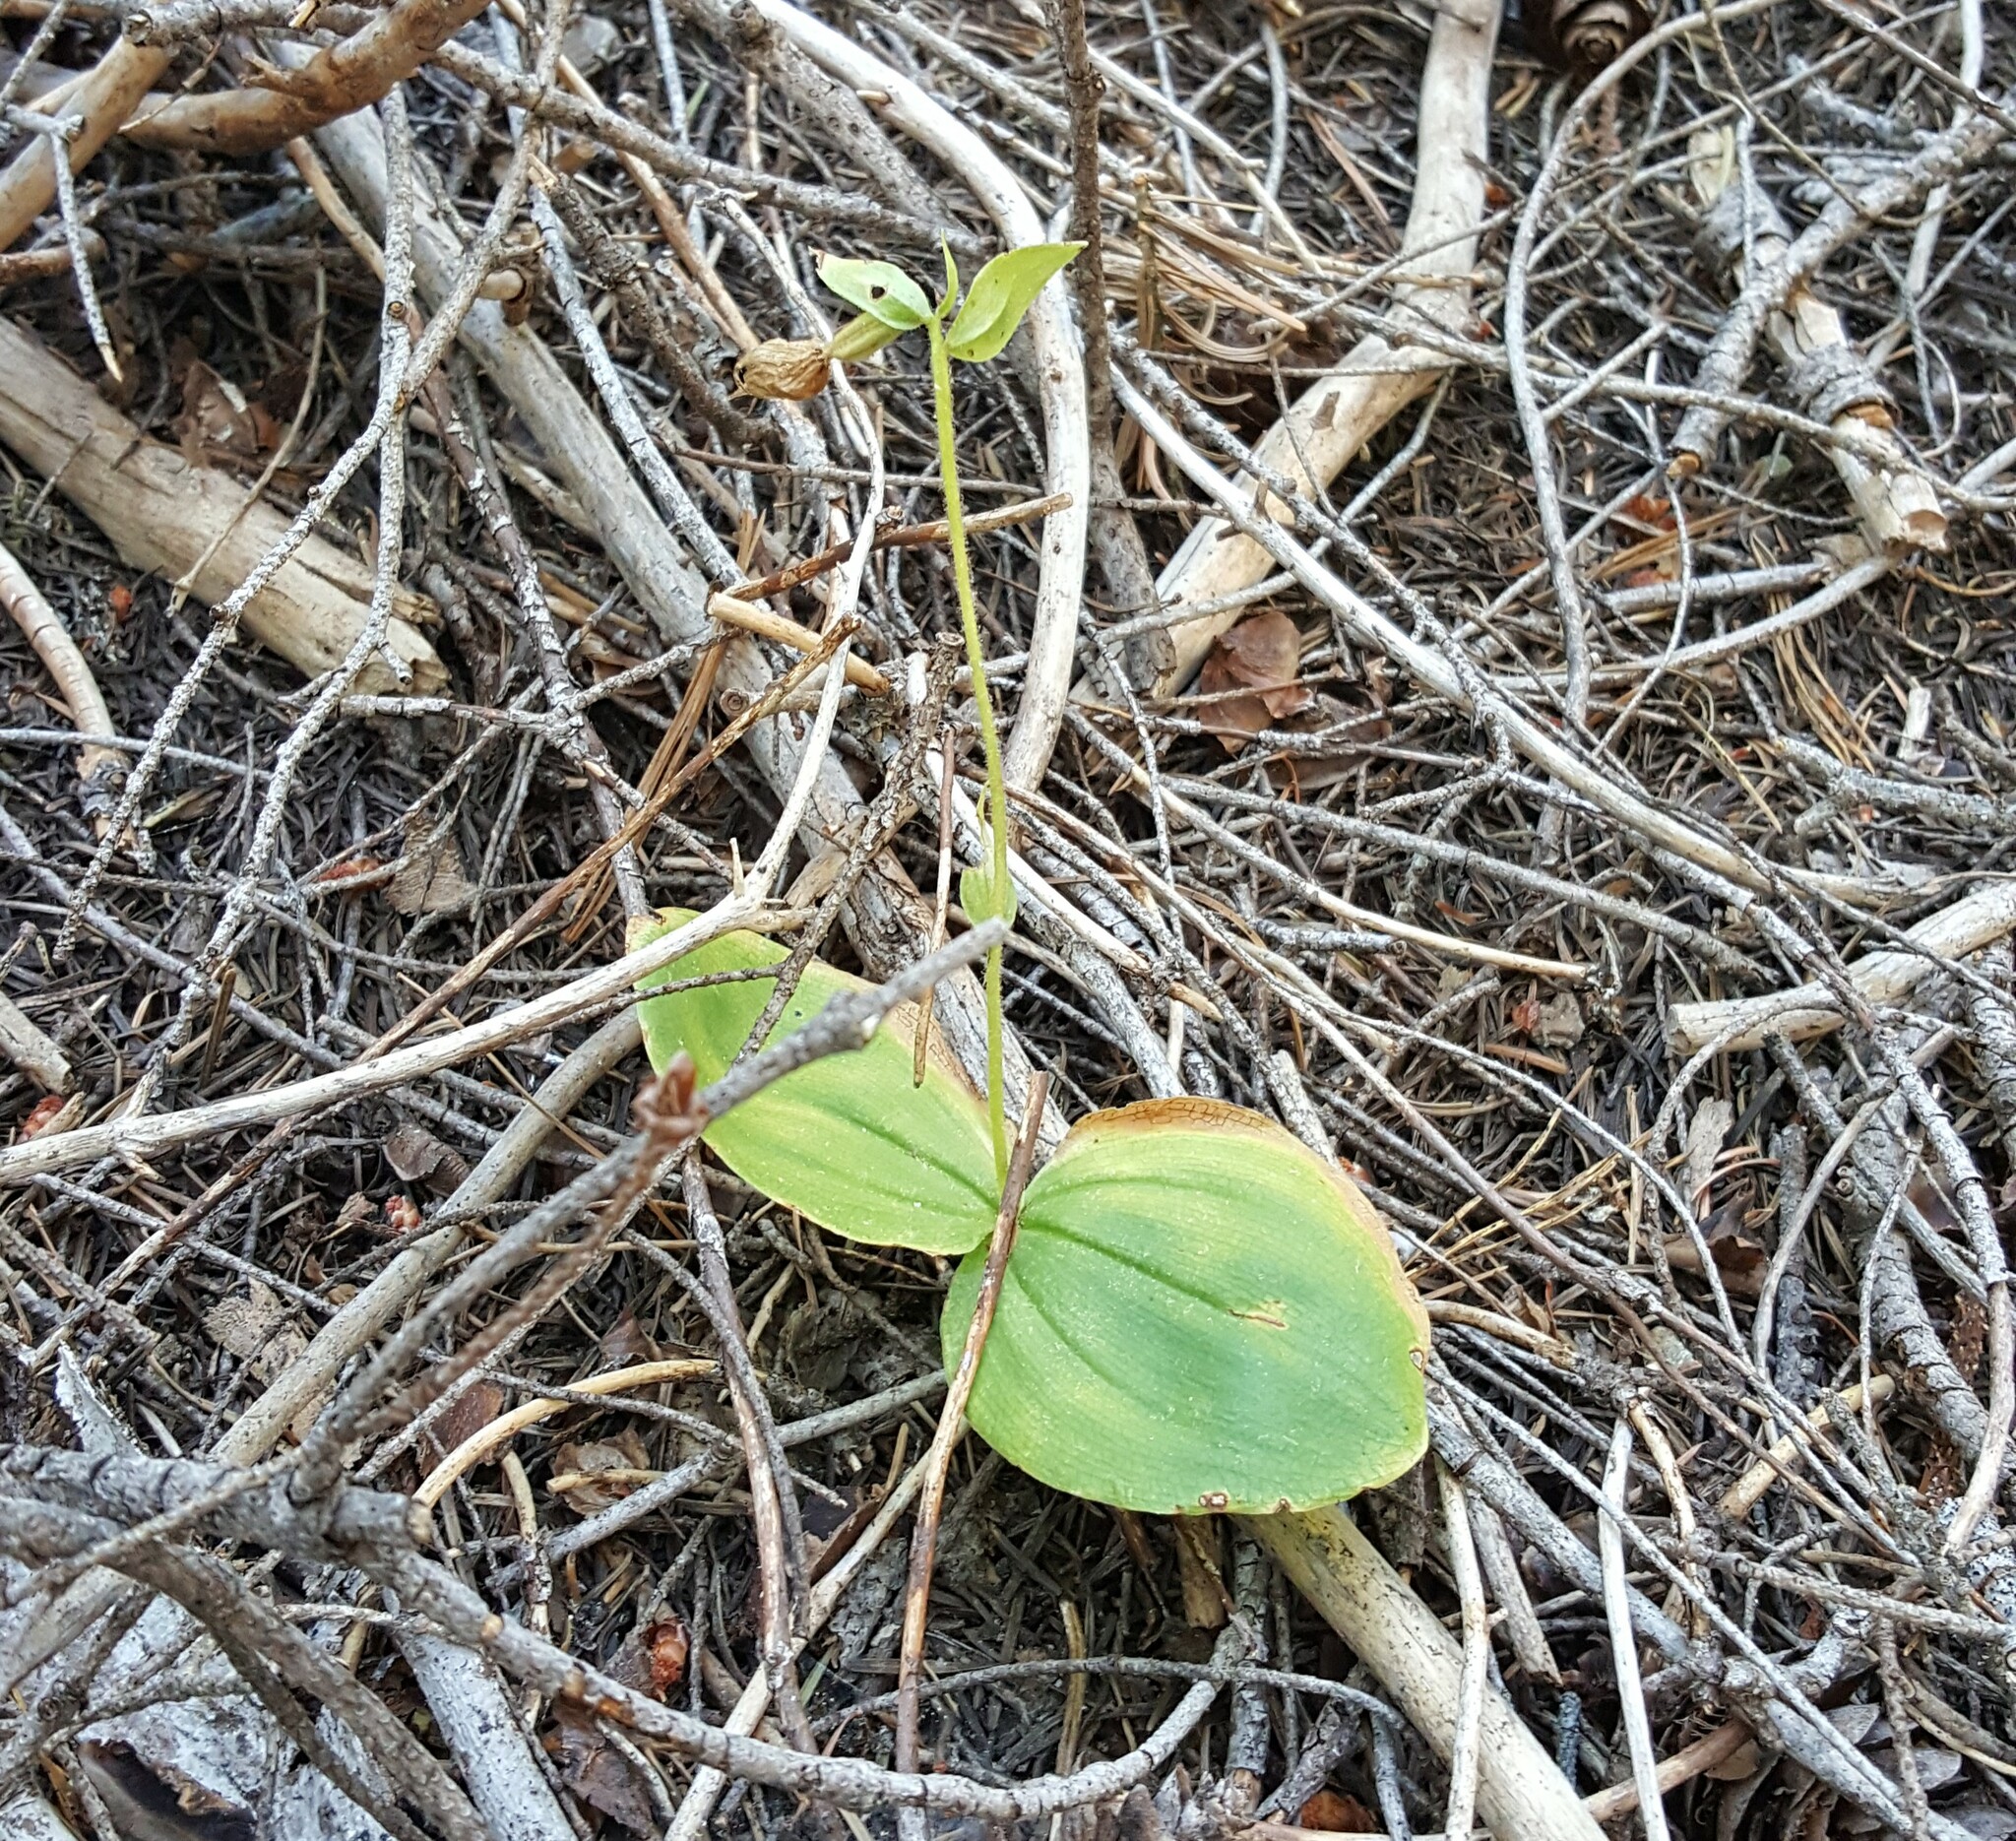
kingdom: Plantae
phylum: Tracheophyta
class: Liliopsida
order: Asparagales
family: Orchidaceae
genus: Cypripedium
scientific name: Cypripedium fasciculatum
